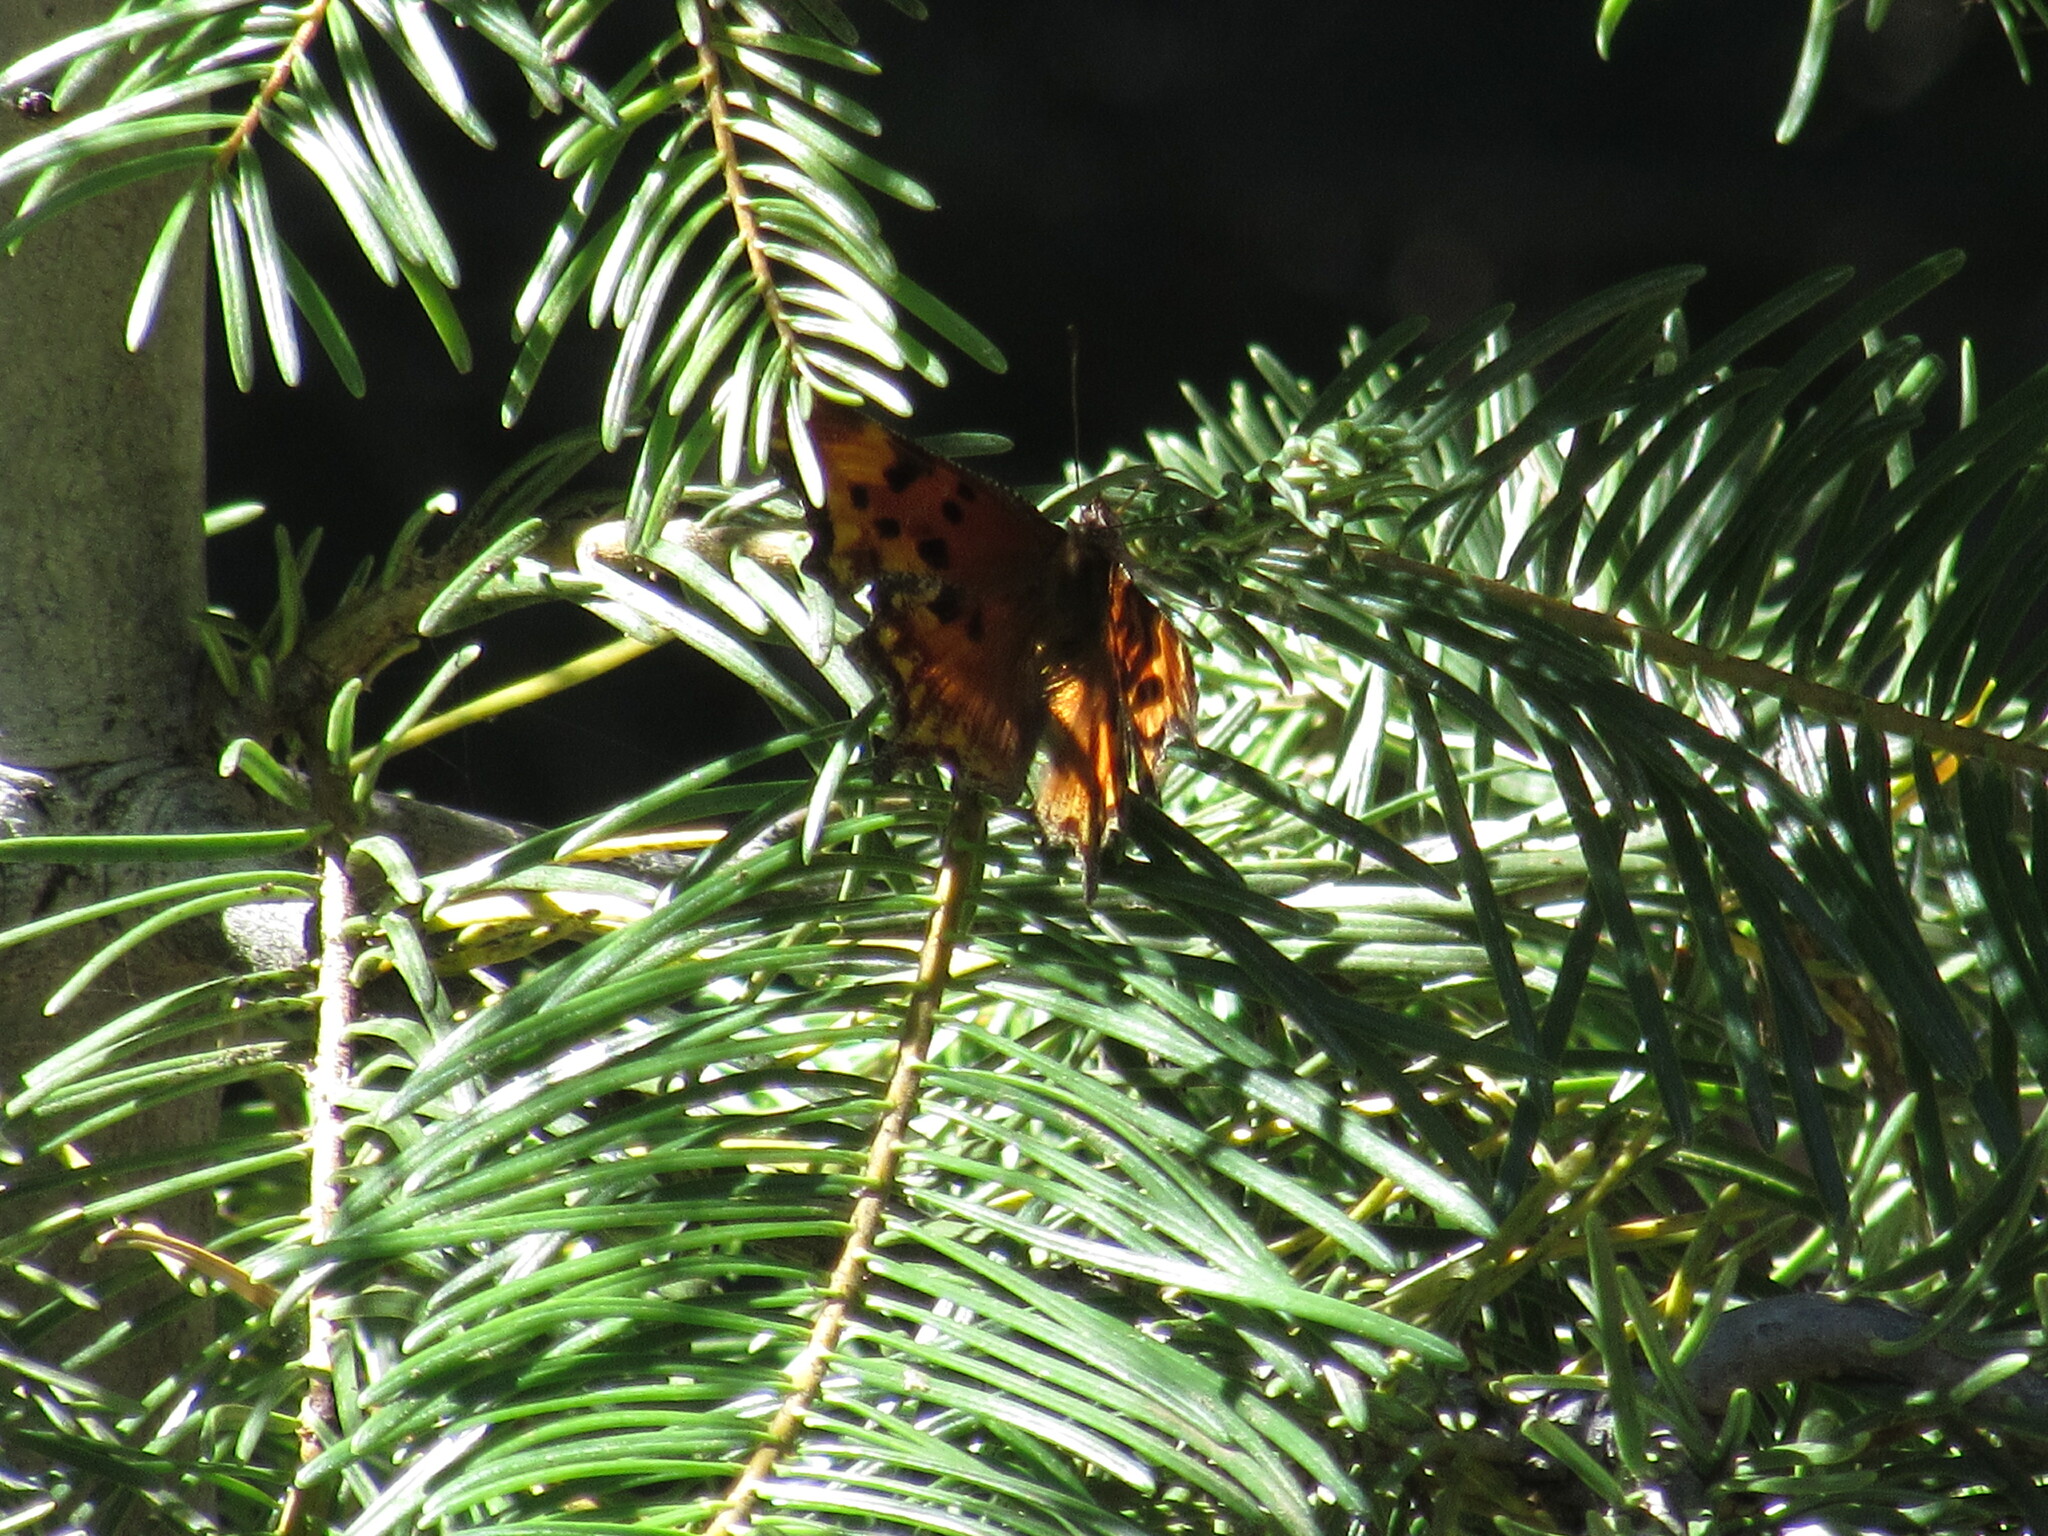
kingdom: Animalia
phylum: Arthropoda
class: Insecta
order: Lepidoptera
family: Nymphalidae
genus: Polygonia
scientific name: Polygonia gracilis
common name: Hoary comma
